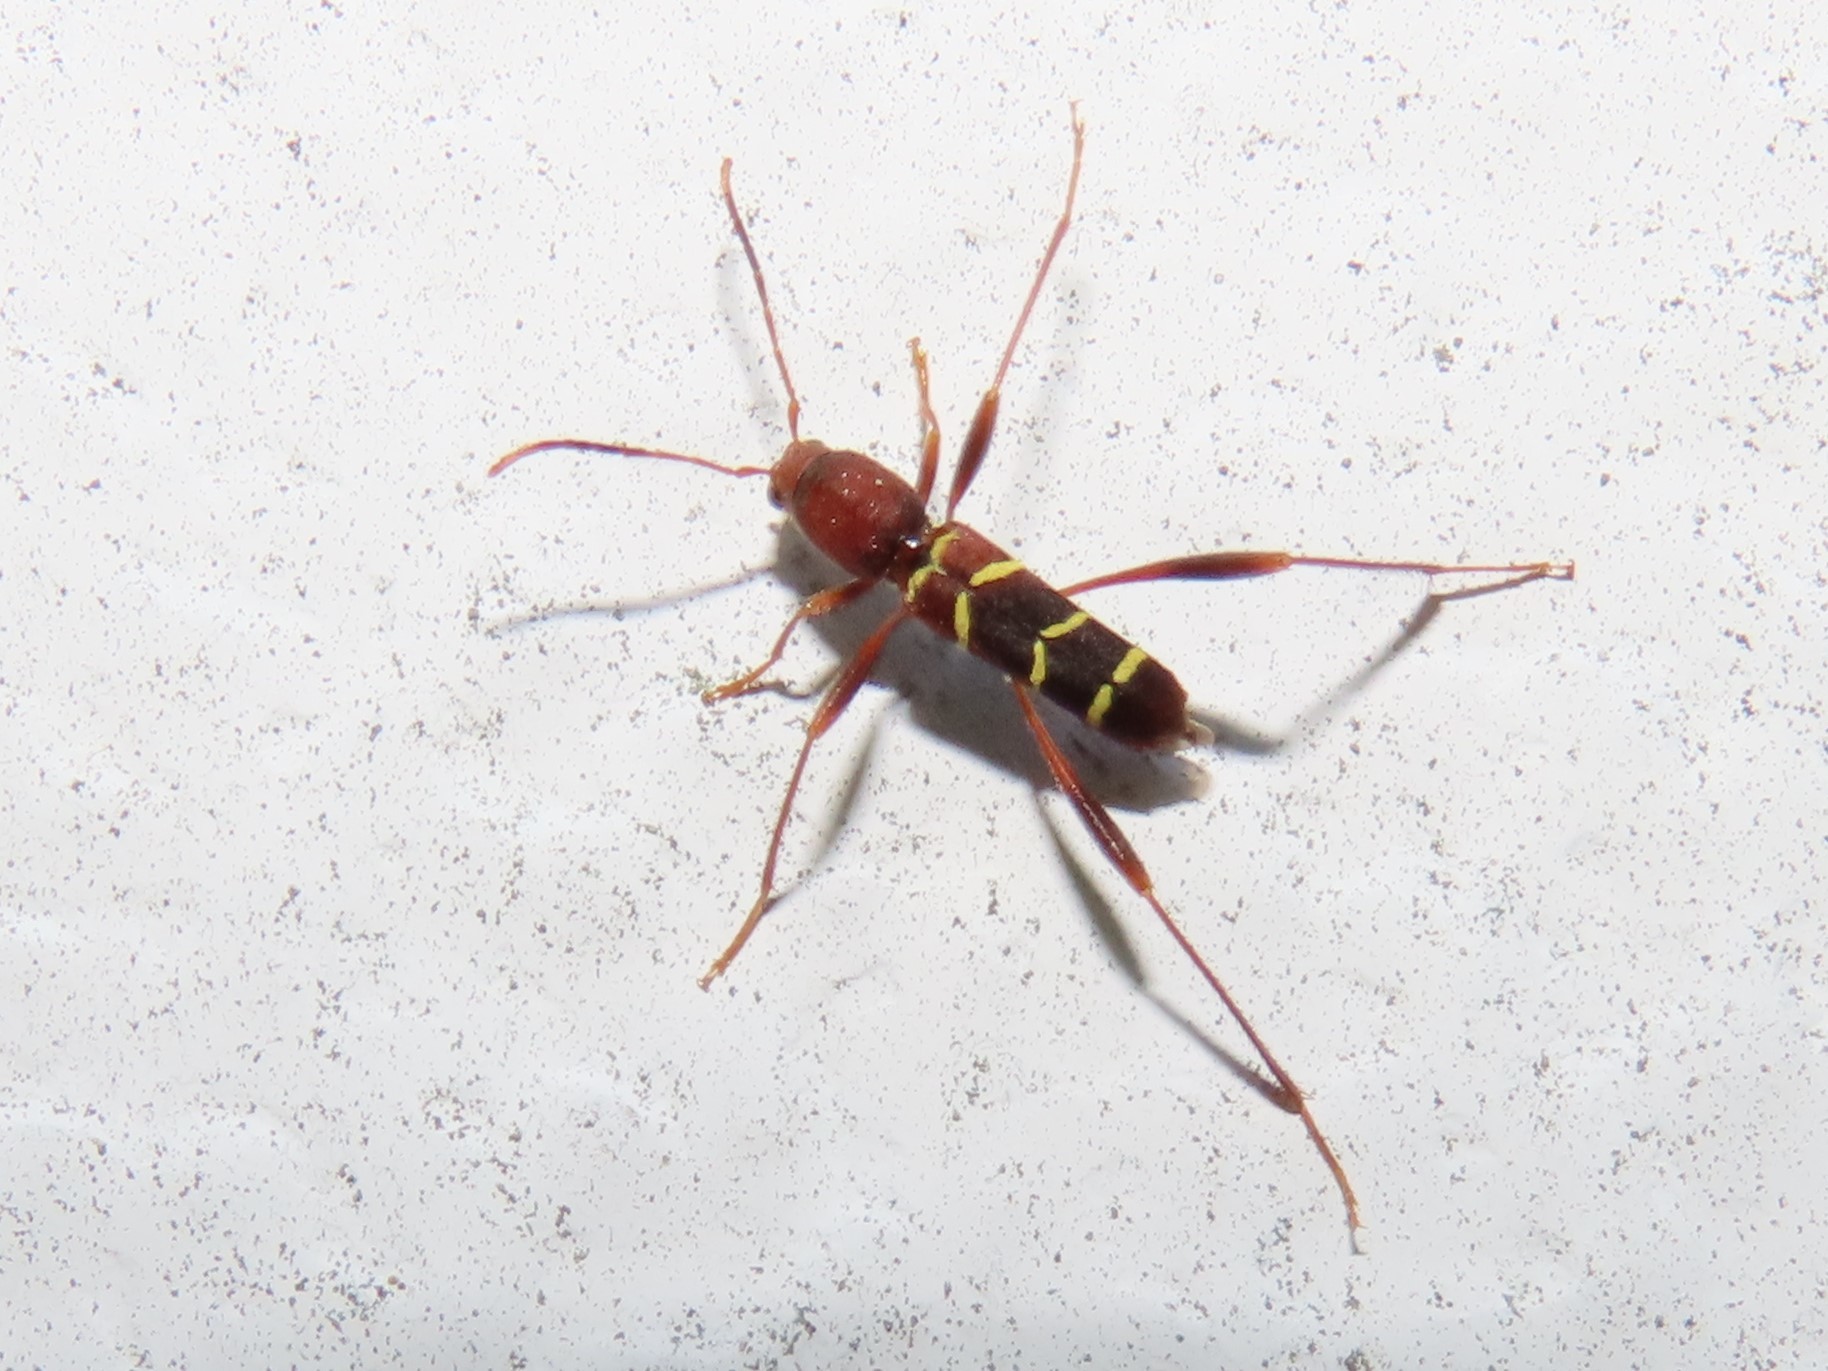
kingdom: Animalia
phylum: Arthropoda
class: Insecta
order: Coleoptera
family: Cerambycidae
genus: Neoclytus
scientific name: Neoclytus acuminatus
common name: Read-headed ash borer
